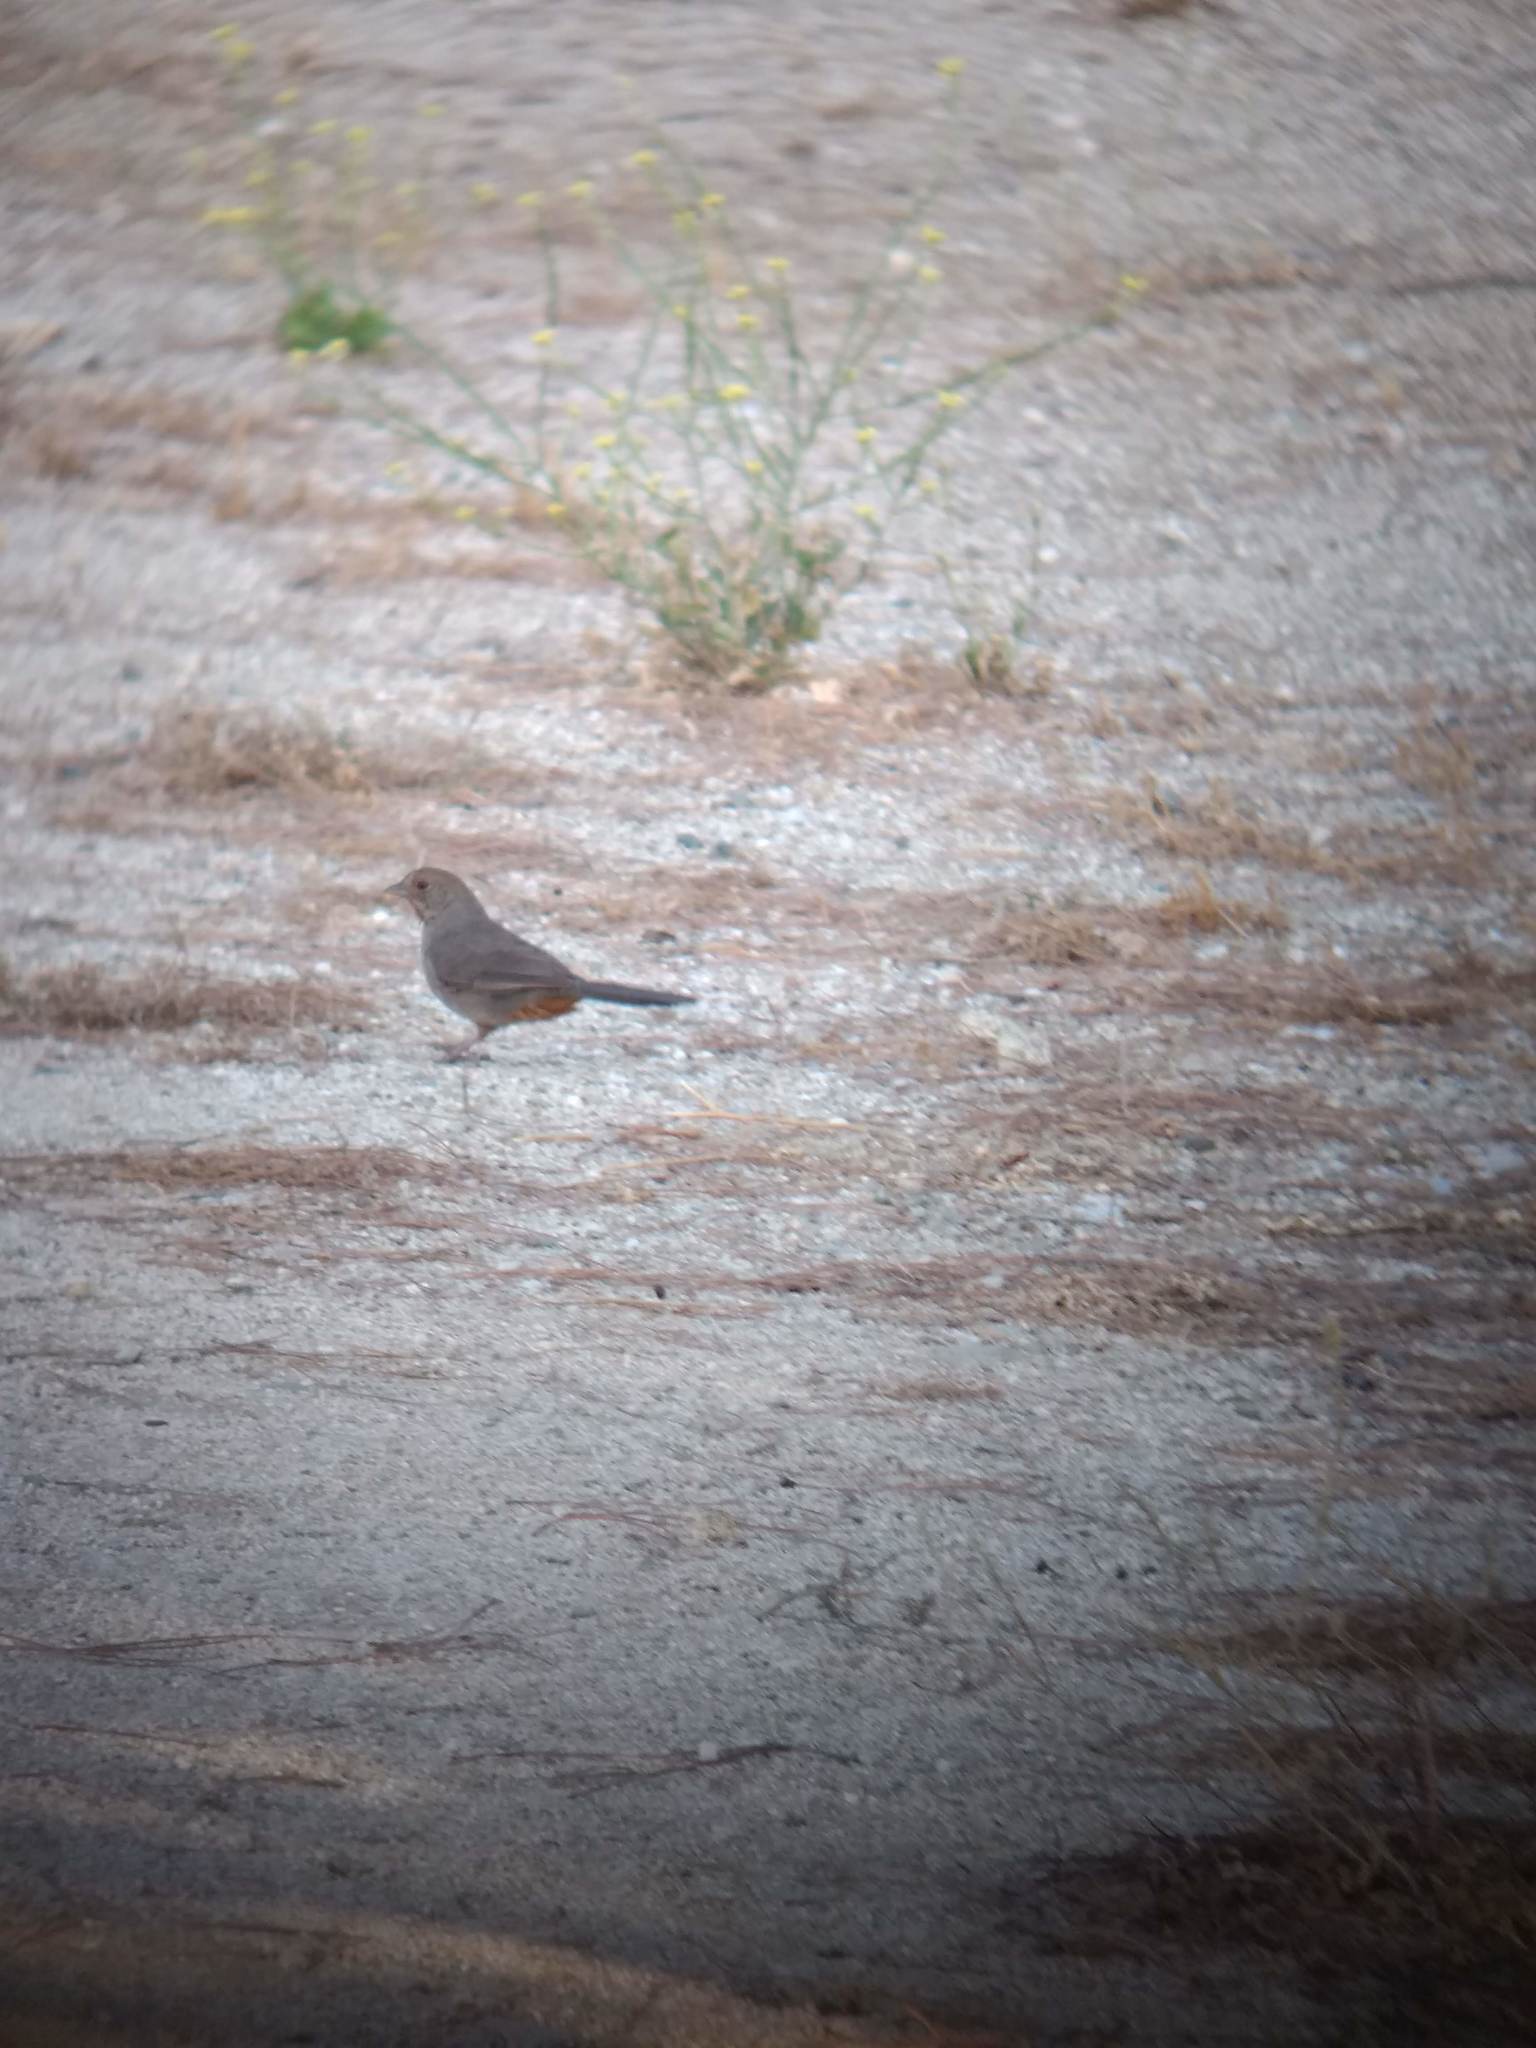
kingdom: Animalia
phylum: Chordata
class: Aves
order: Passeriformes
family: Passerellidae
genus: Melozone
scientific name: Melozone crissalis
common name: California towhee
